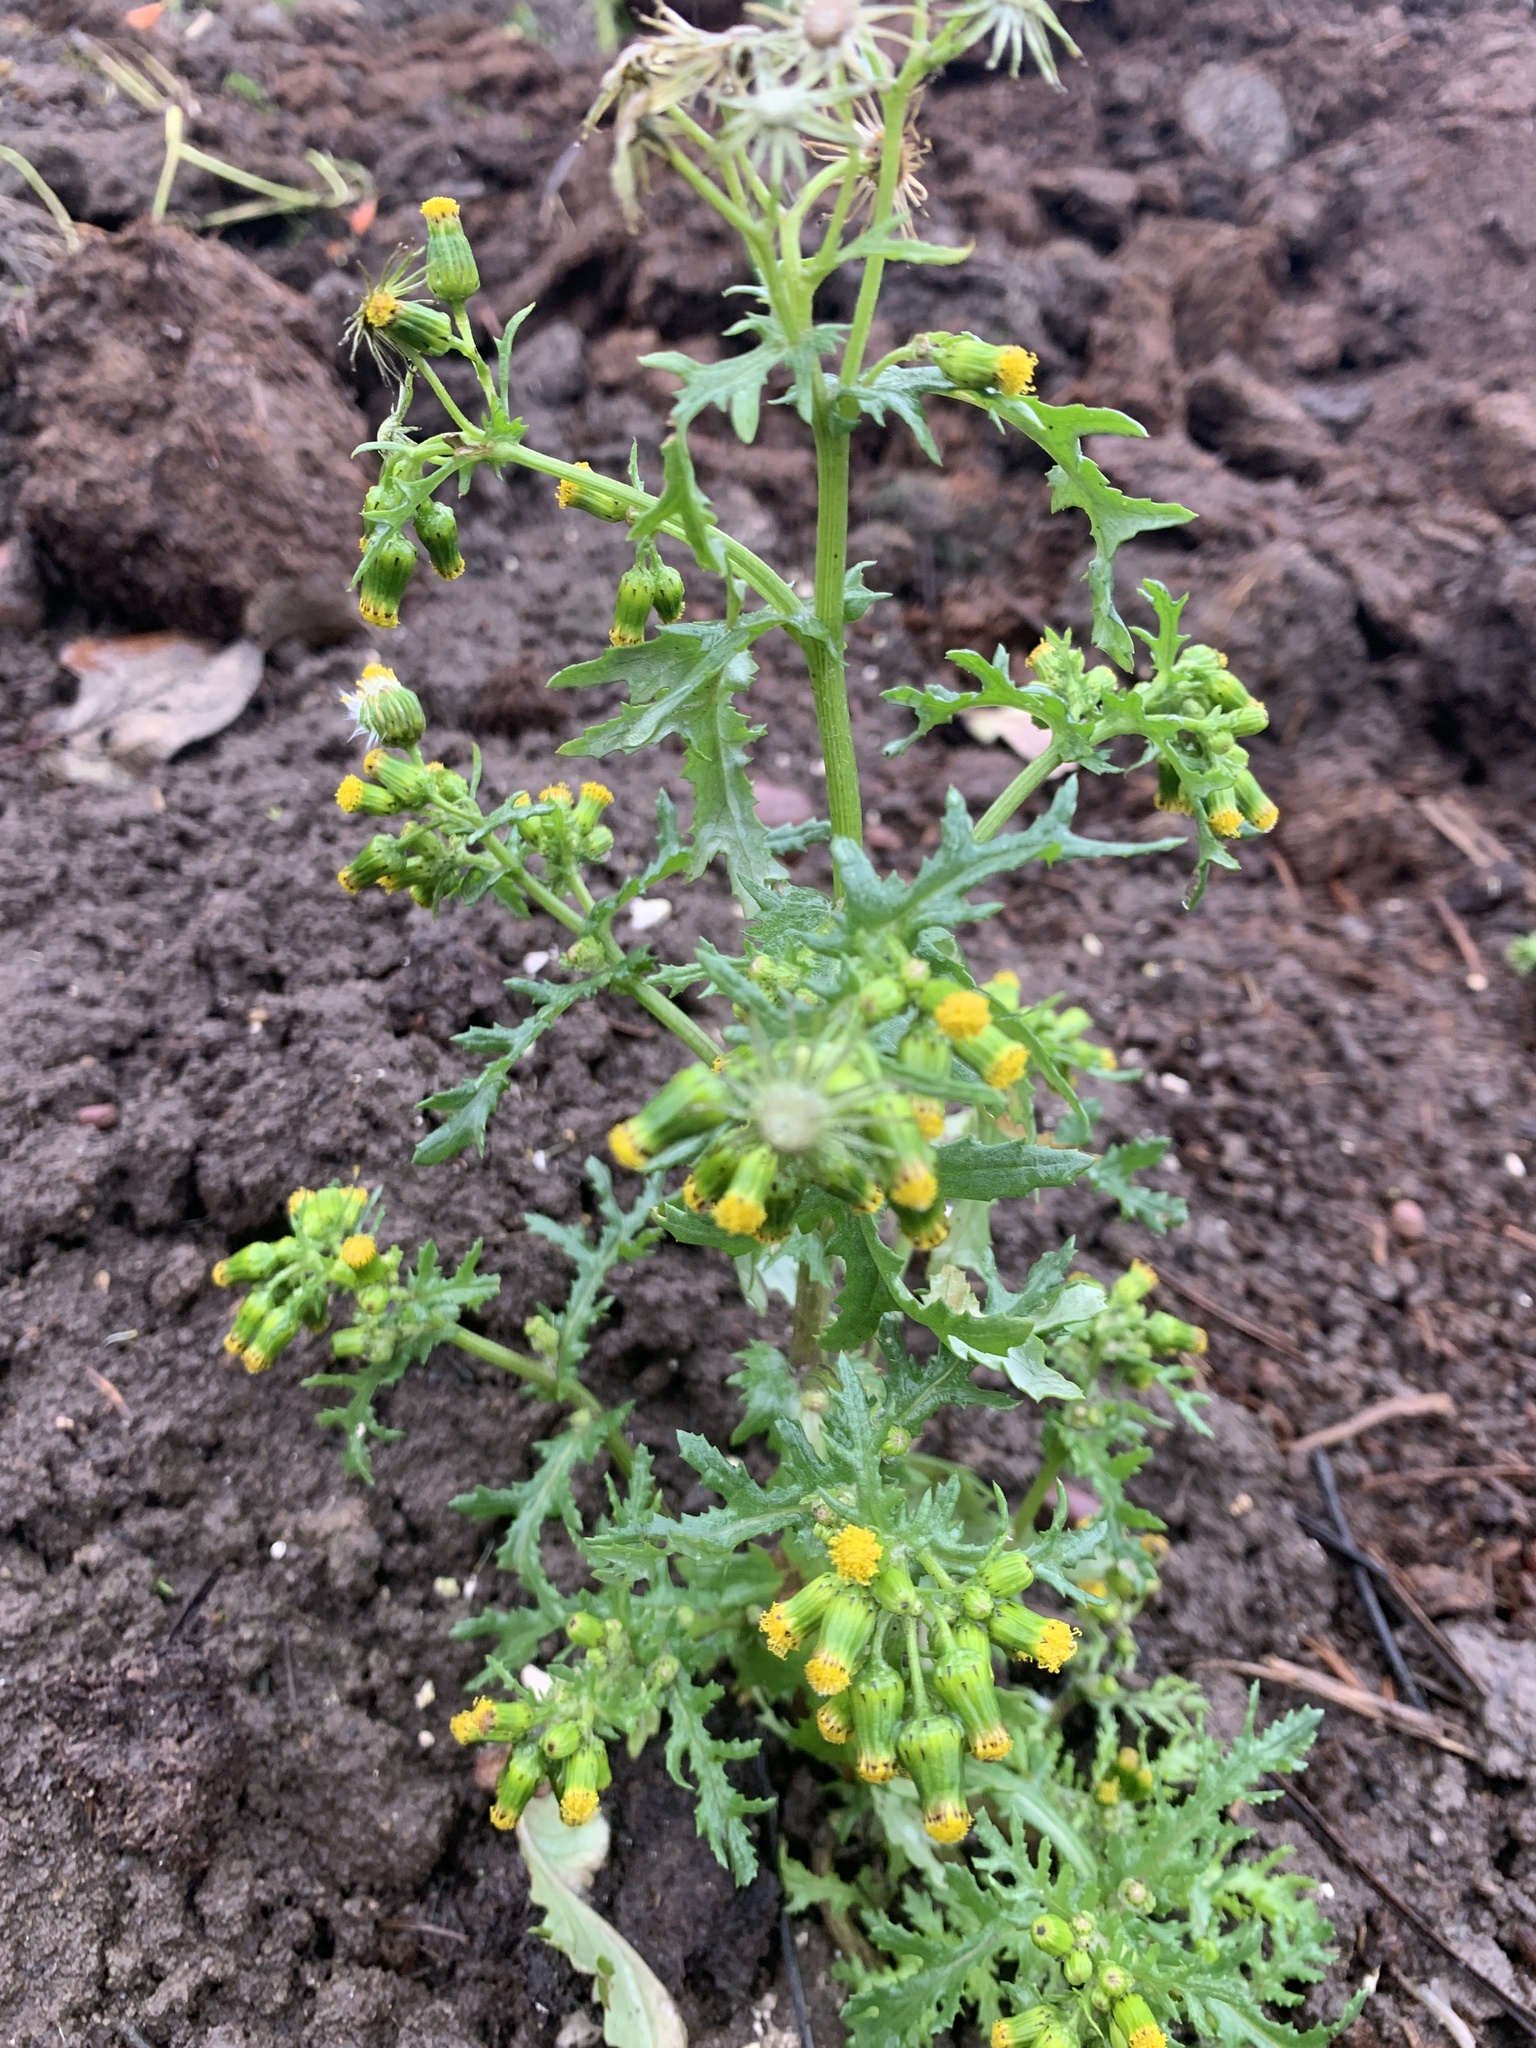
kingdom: Plantae
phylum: Tracheophyta
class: Magnoliopsida
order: Asterales
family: Asteraceae
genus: Senecio
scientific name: Senecio vulgaris
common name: Old-man-in-the-spring
